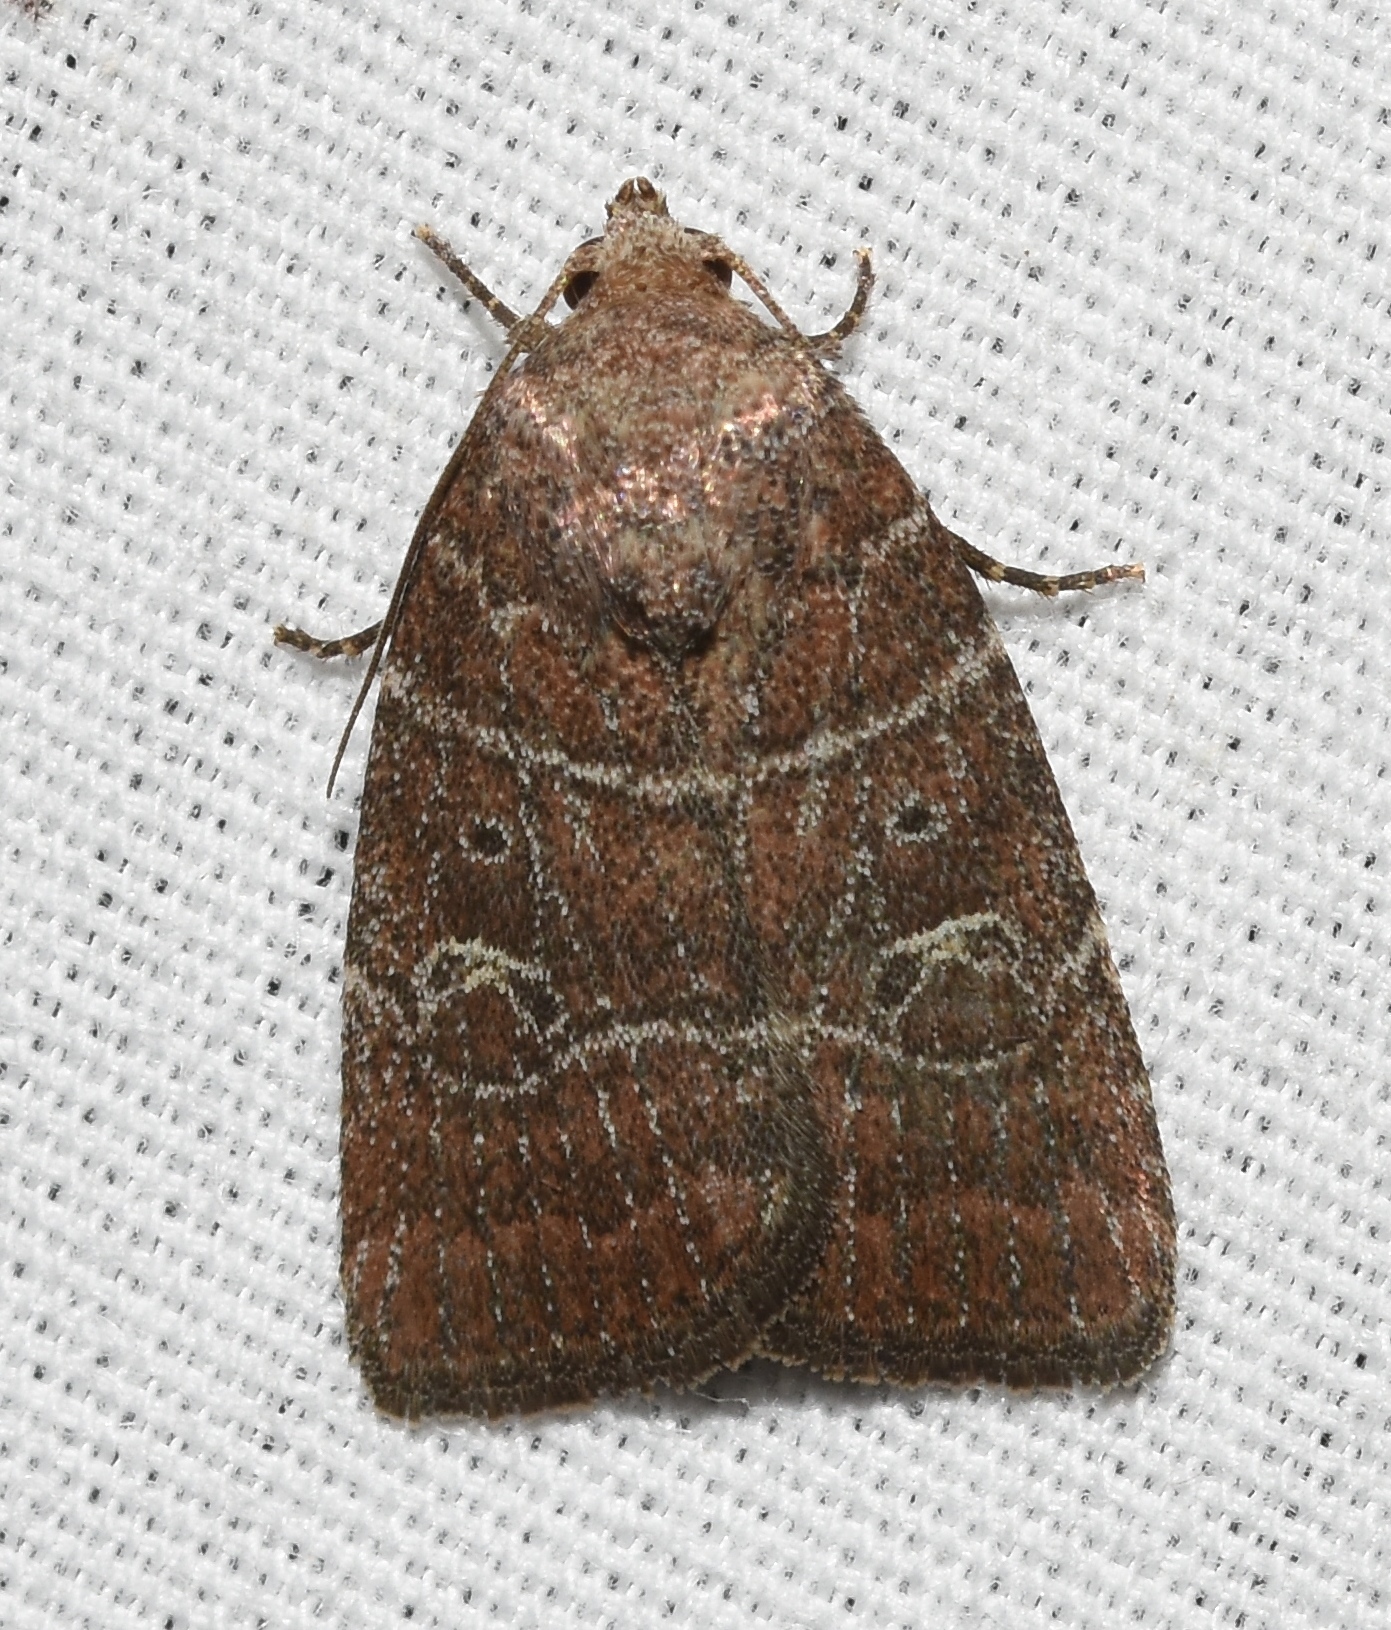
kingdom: Animalia
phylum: Arthropoda
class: Insecta
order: Lepidoptera
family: Noctuidae
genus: Elaphria
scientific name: Elaphria grata
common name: Grateful midget moth
